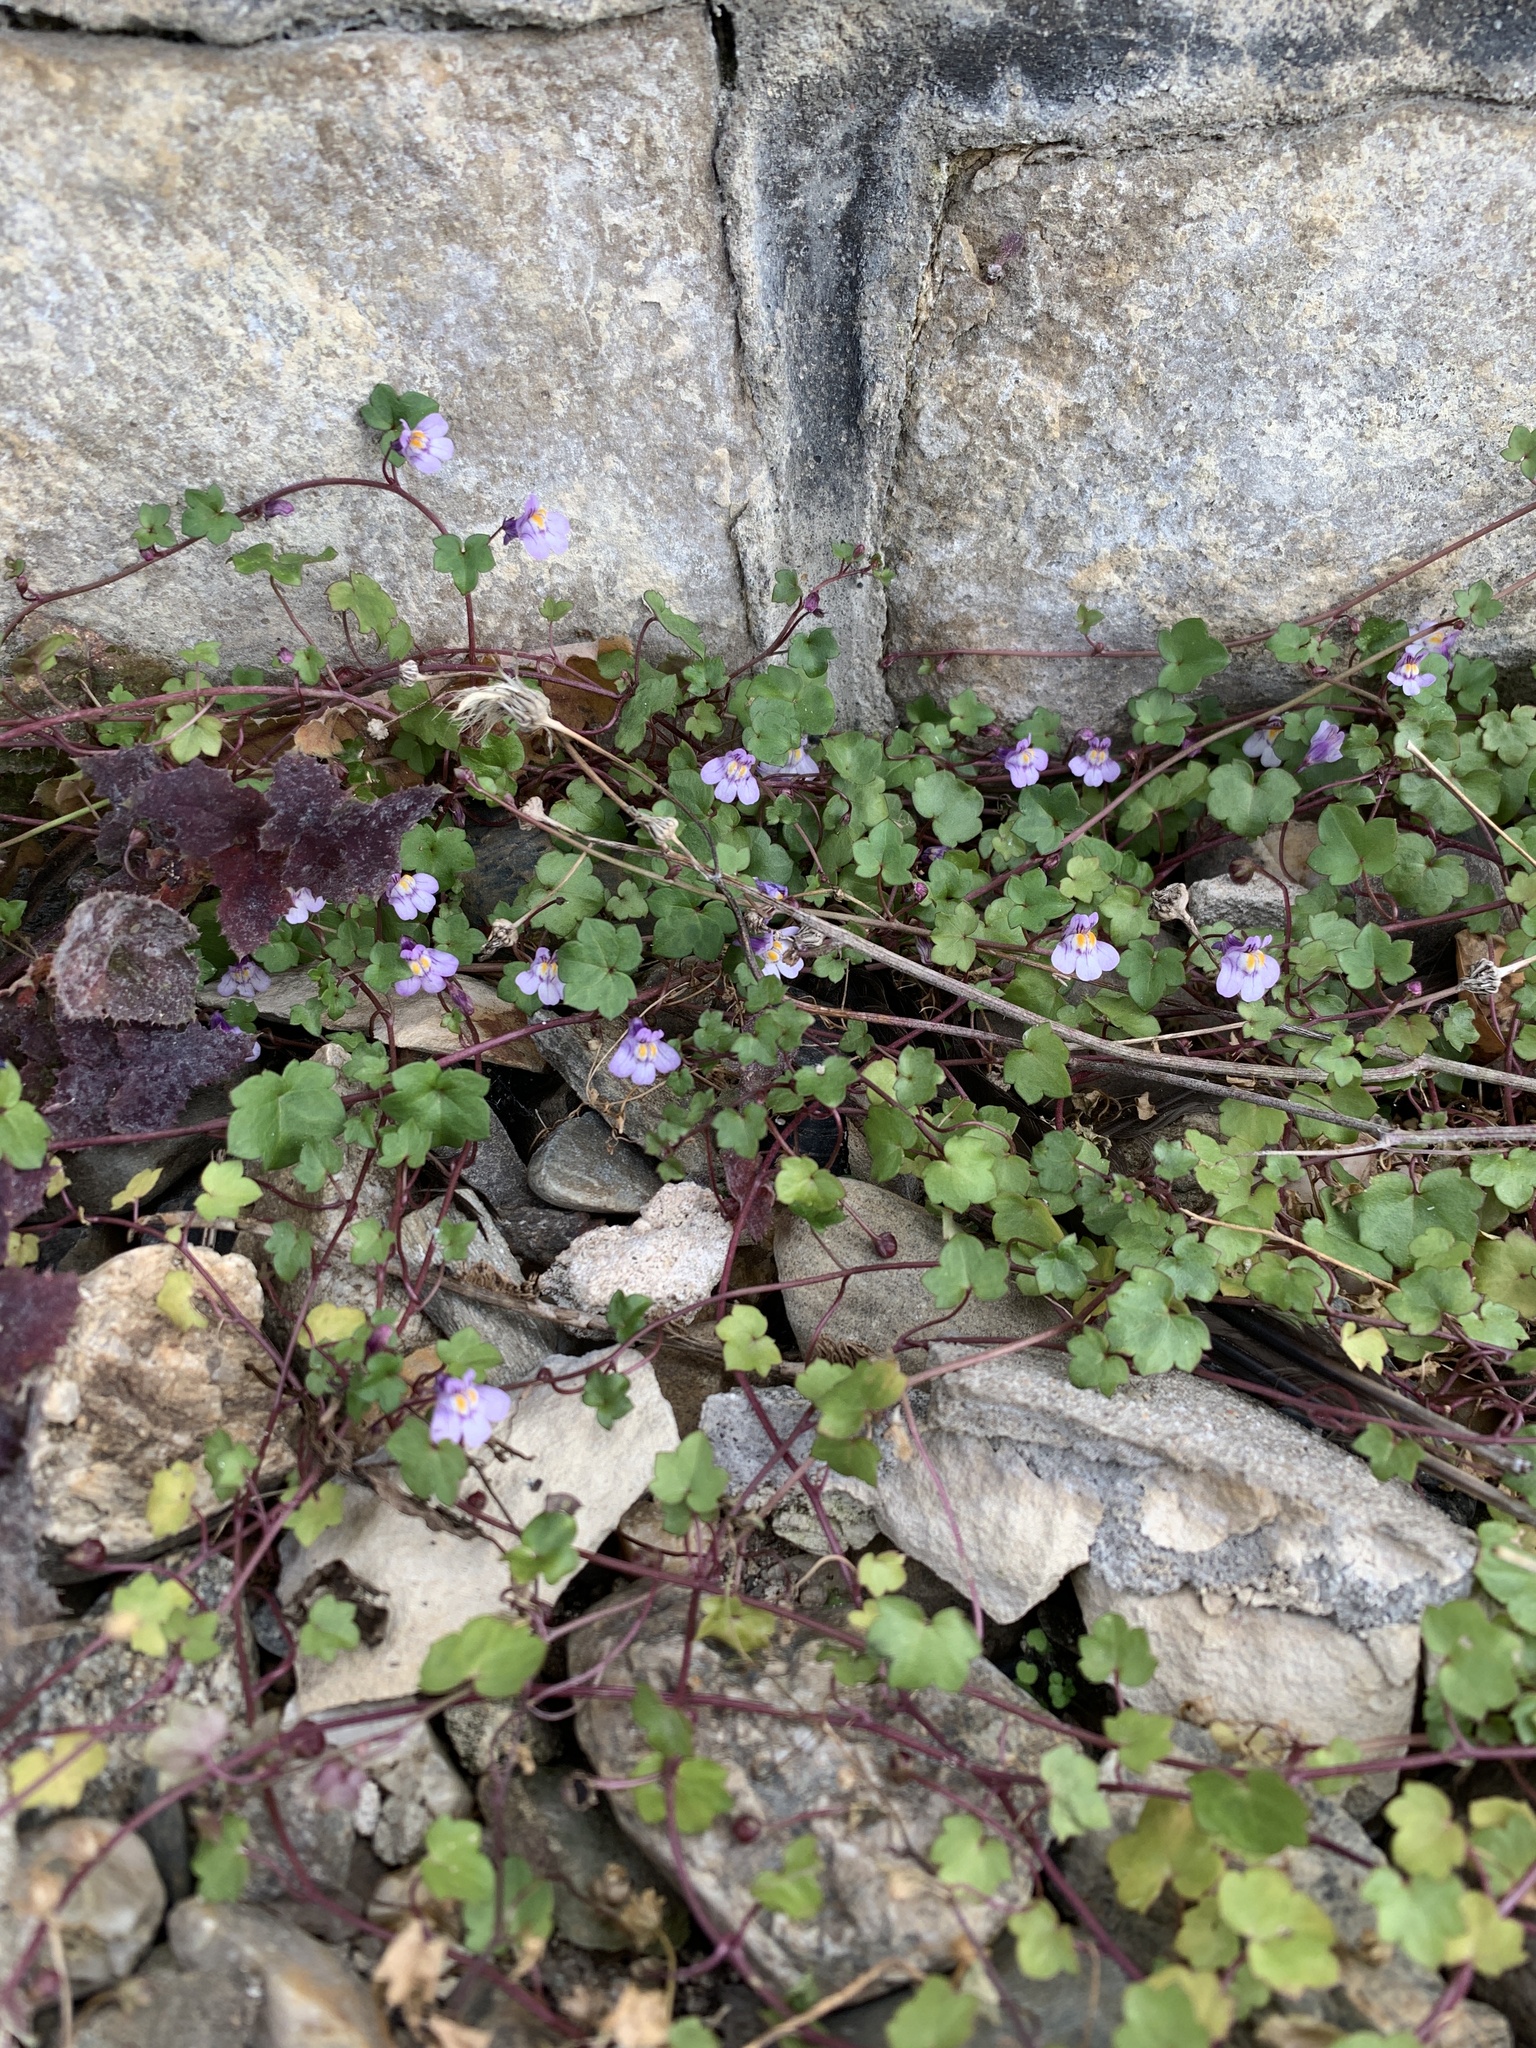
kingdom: Plantae
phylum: Tracheophyta
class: Magnoliopsida
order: Lamiales
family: Plantaginaceae
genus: Cymbalaria
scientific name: Cymbalaria muralis
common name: Ivy-leaved toadflax
